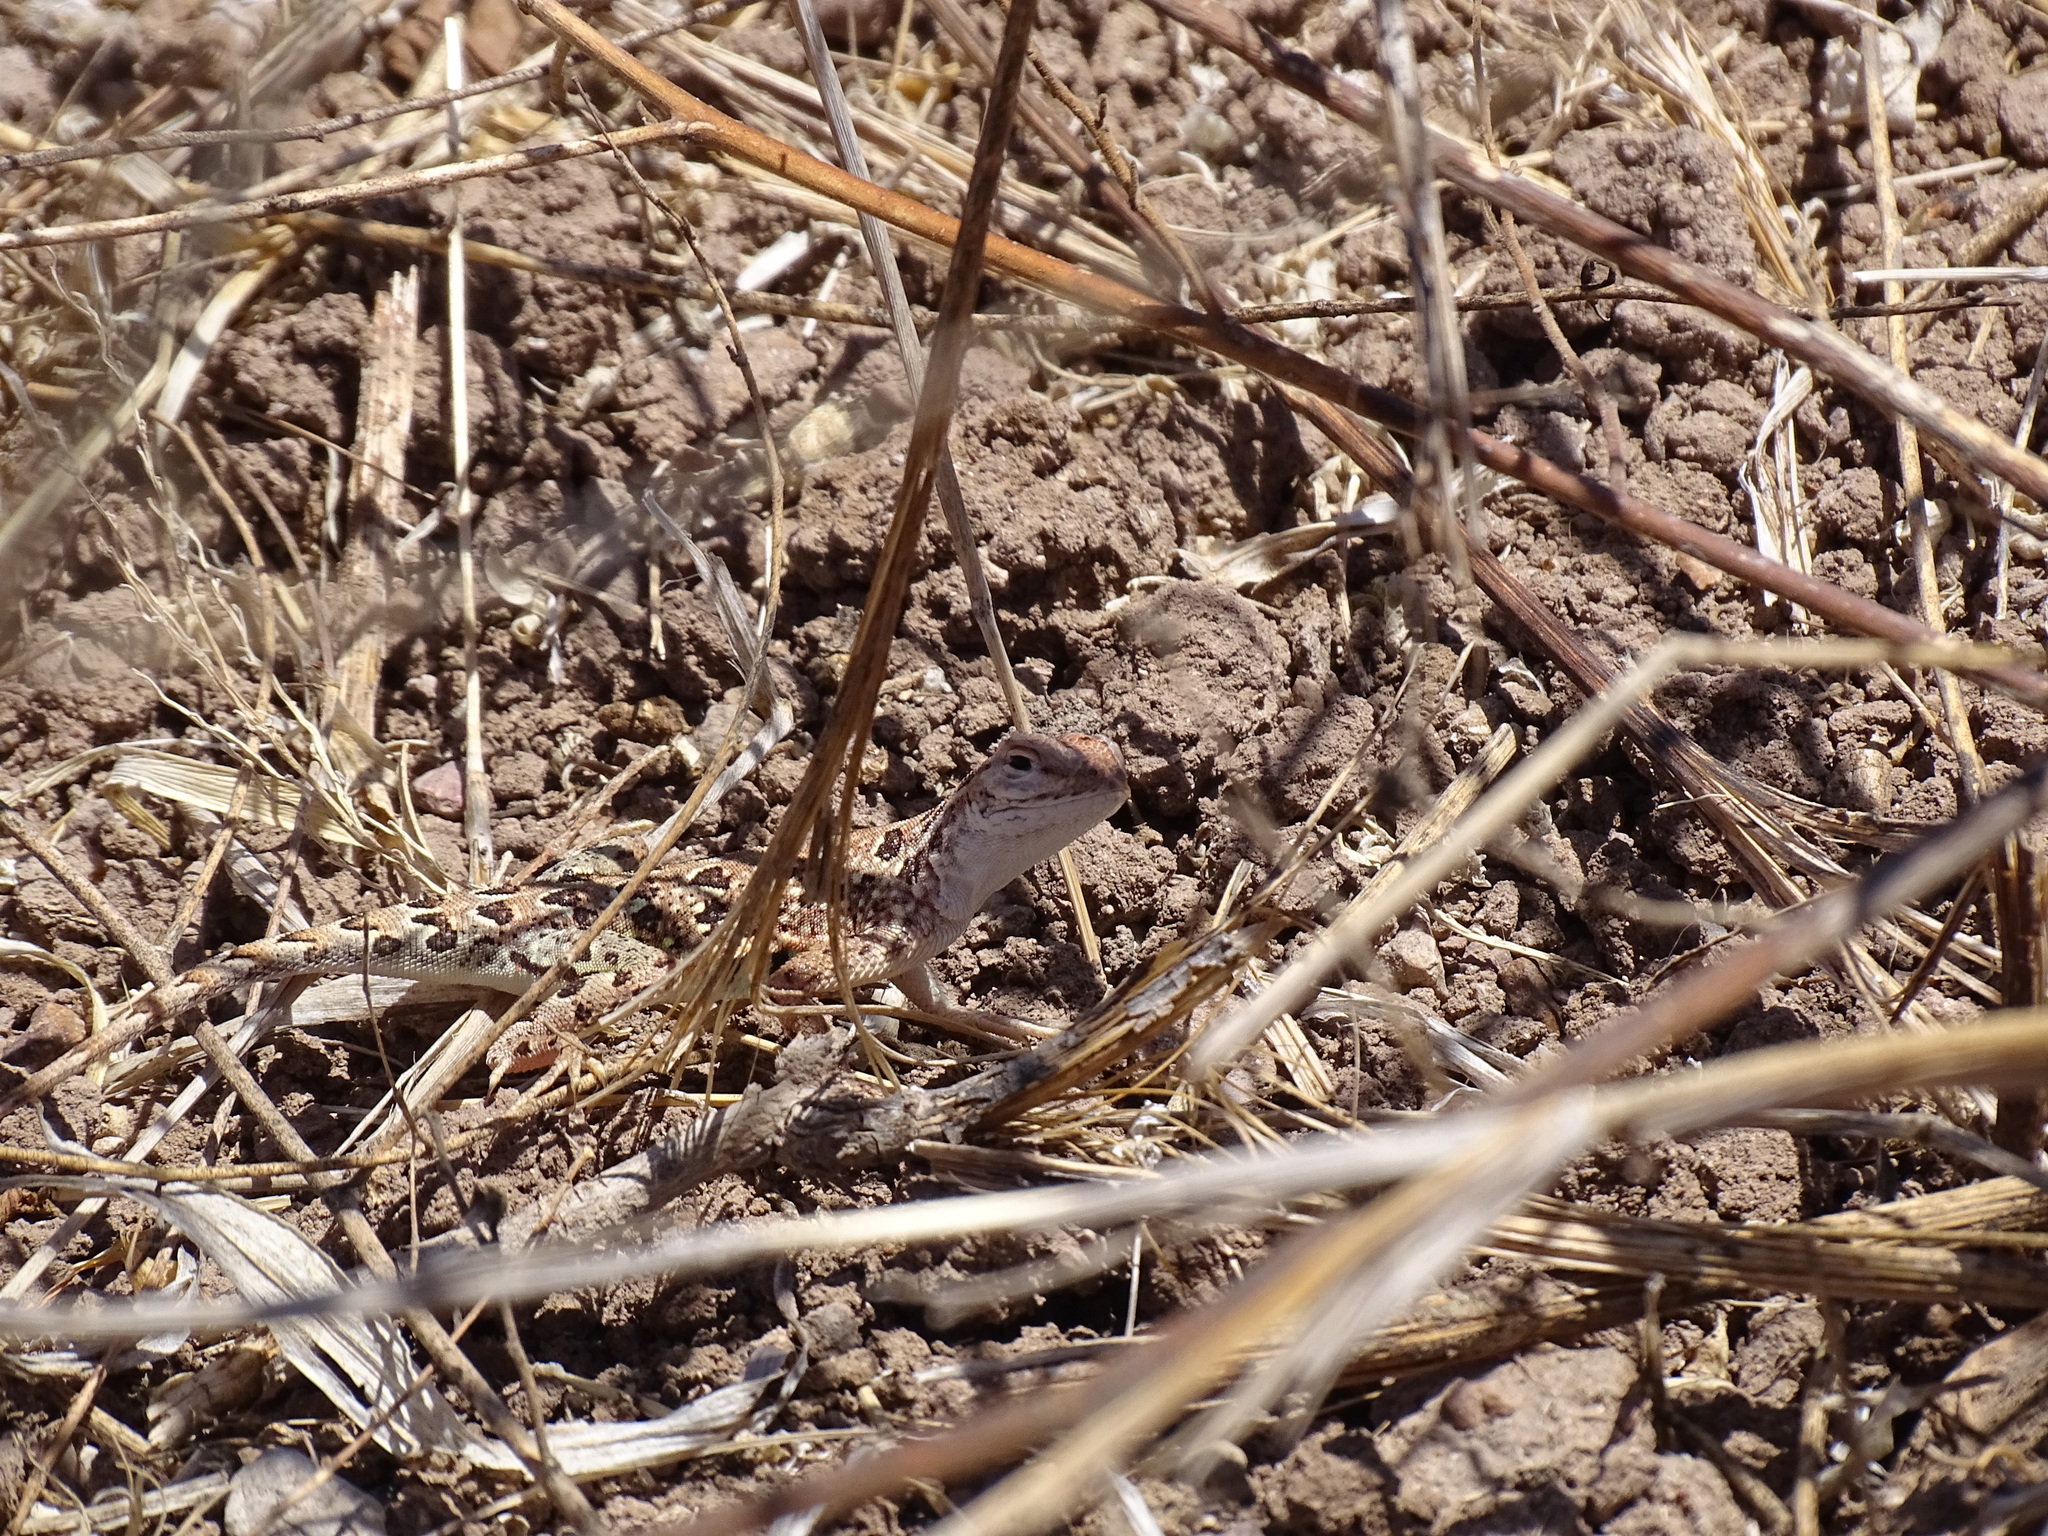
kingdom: Animalia
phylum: Chordata
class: Squamata
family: Phrynosomatidae
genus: Holbrookia
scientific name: Holbrookia elegans
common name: Elegant earless lizard
